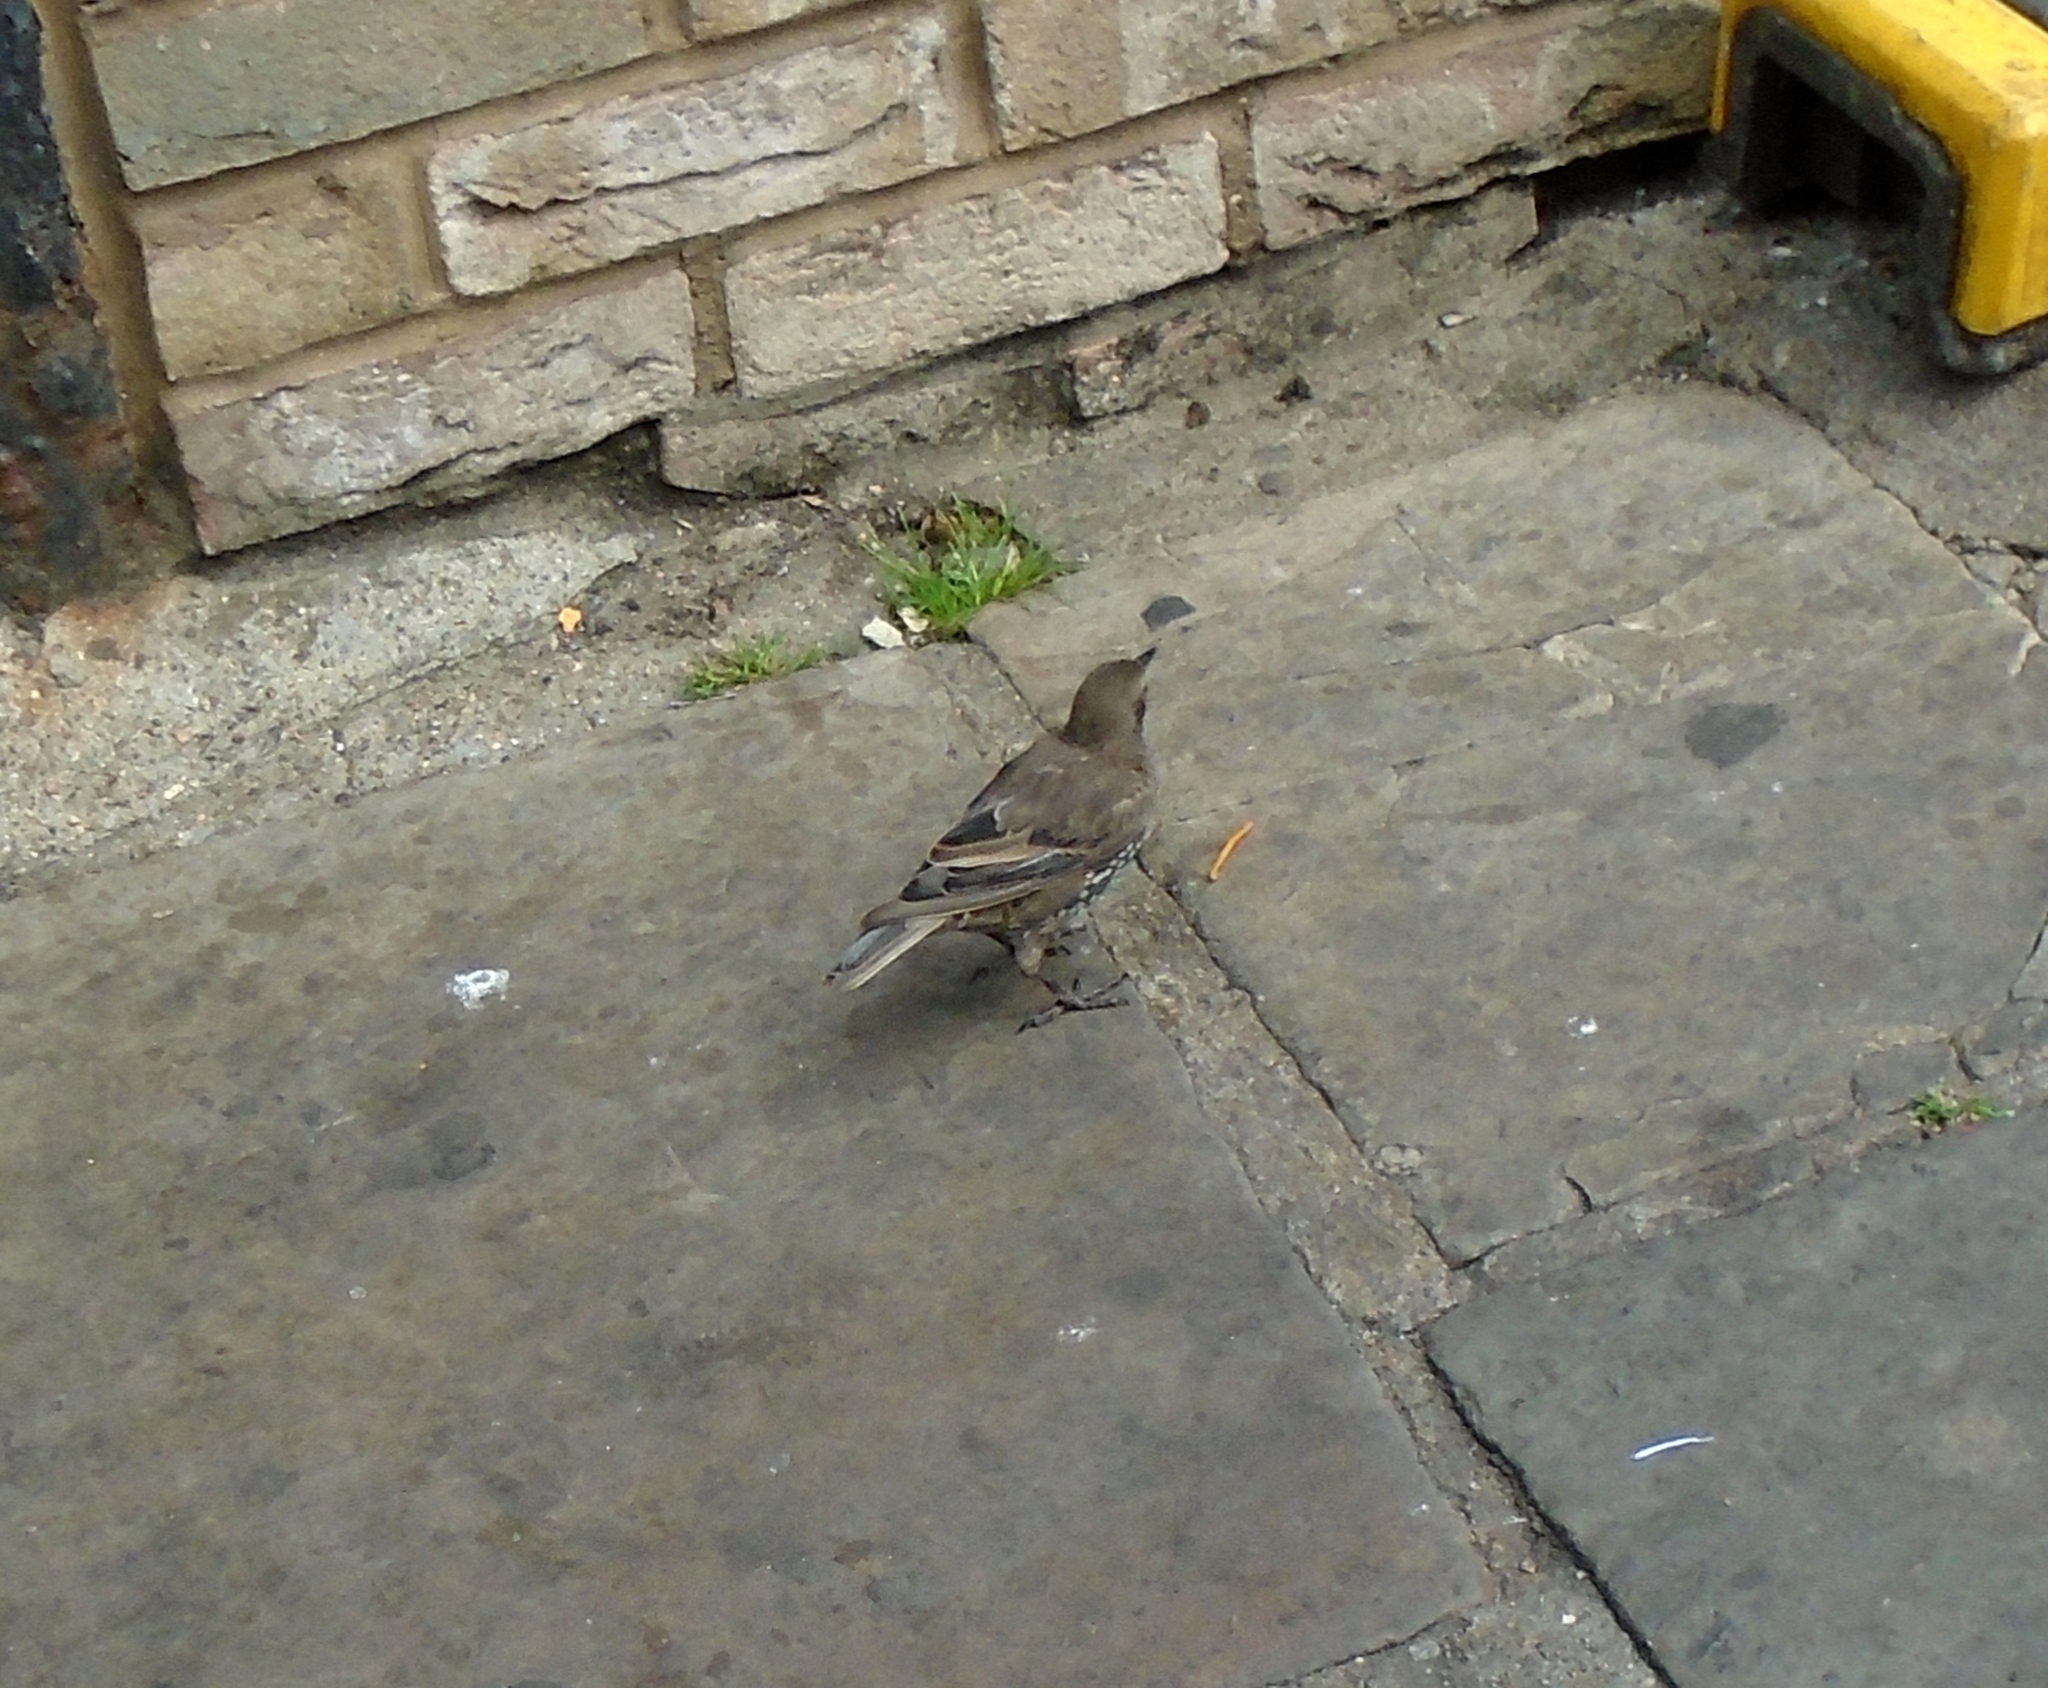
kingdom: Animalia
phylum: Chordata
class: Aves
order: Passeriformes
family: Sturnidae
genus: Sturnus
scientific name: Sturnus vulgaris
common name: Common starling
